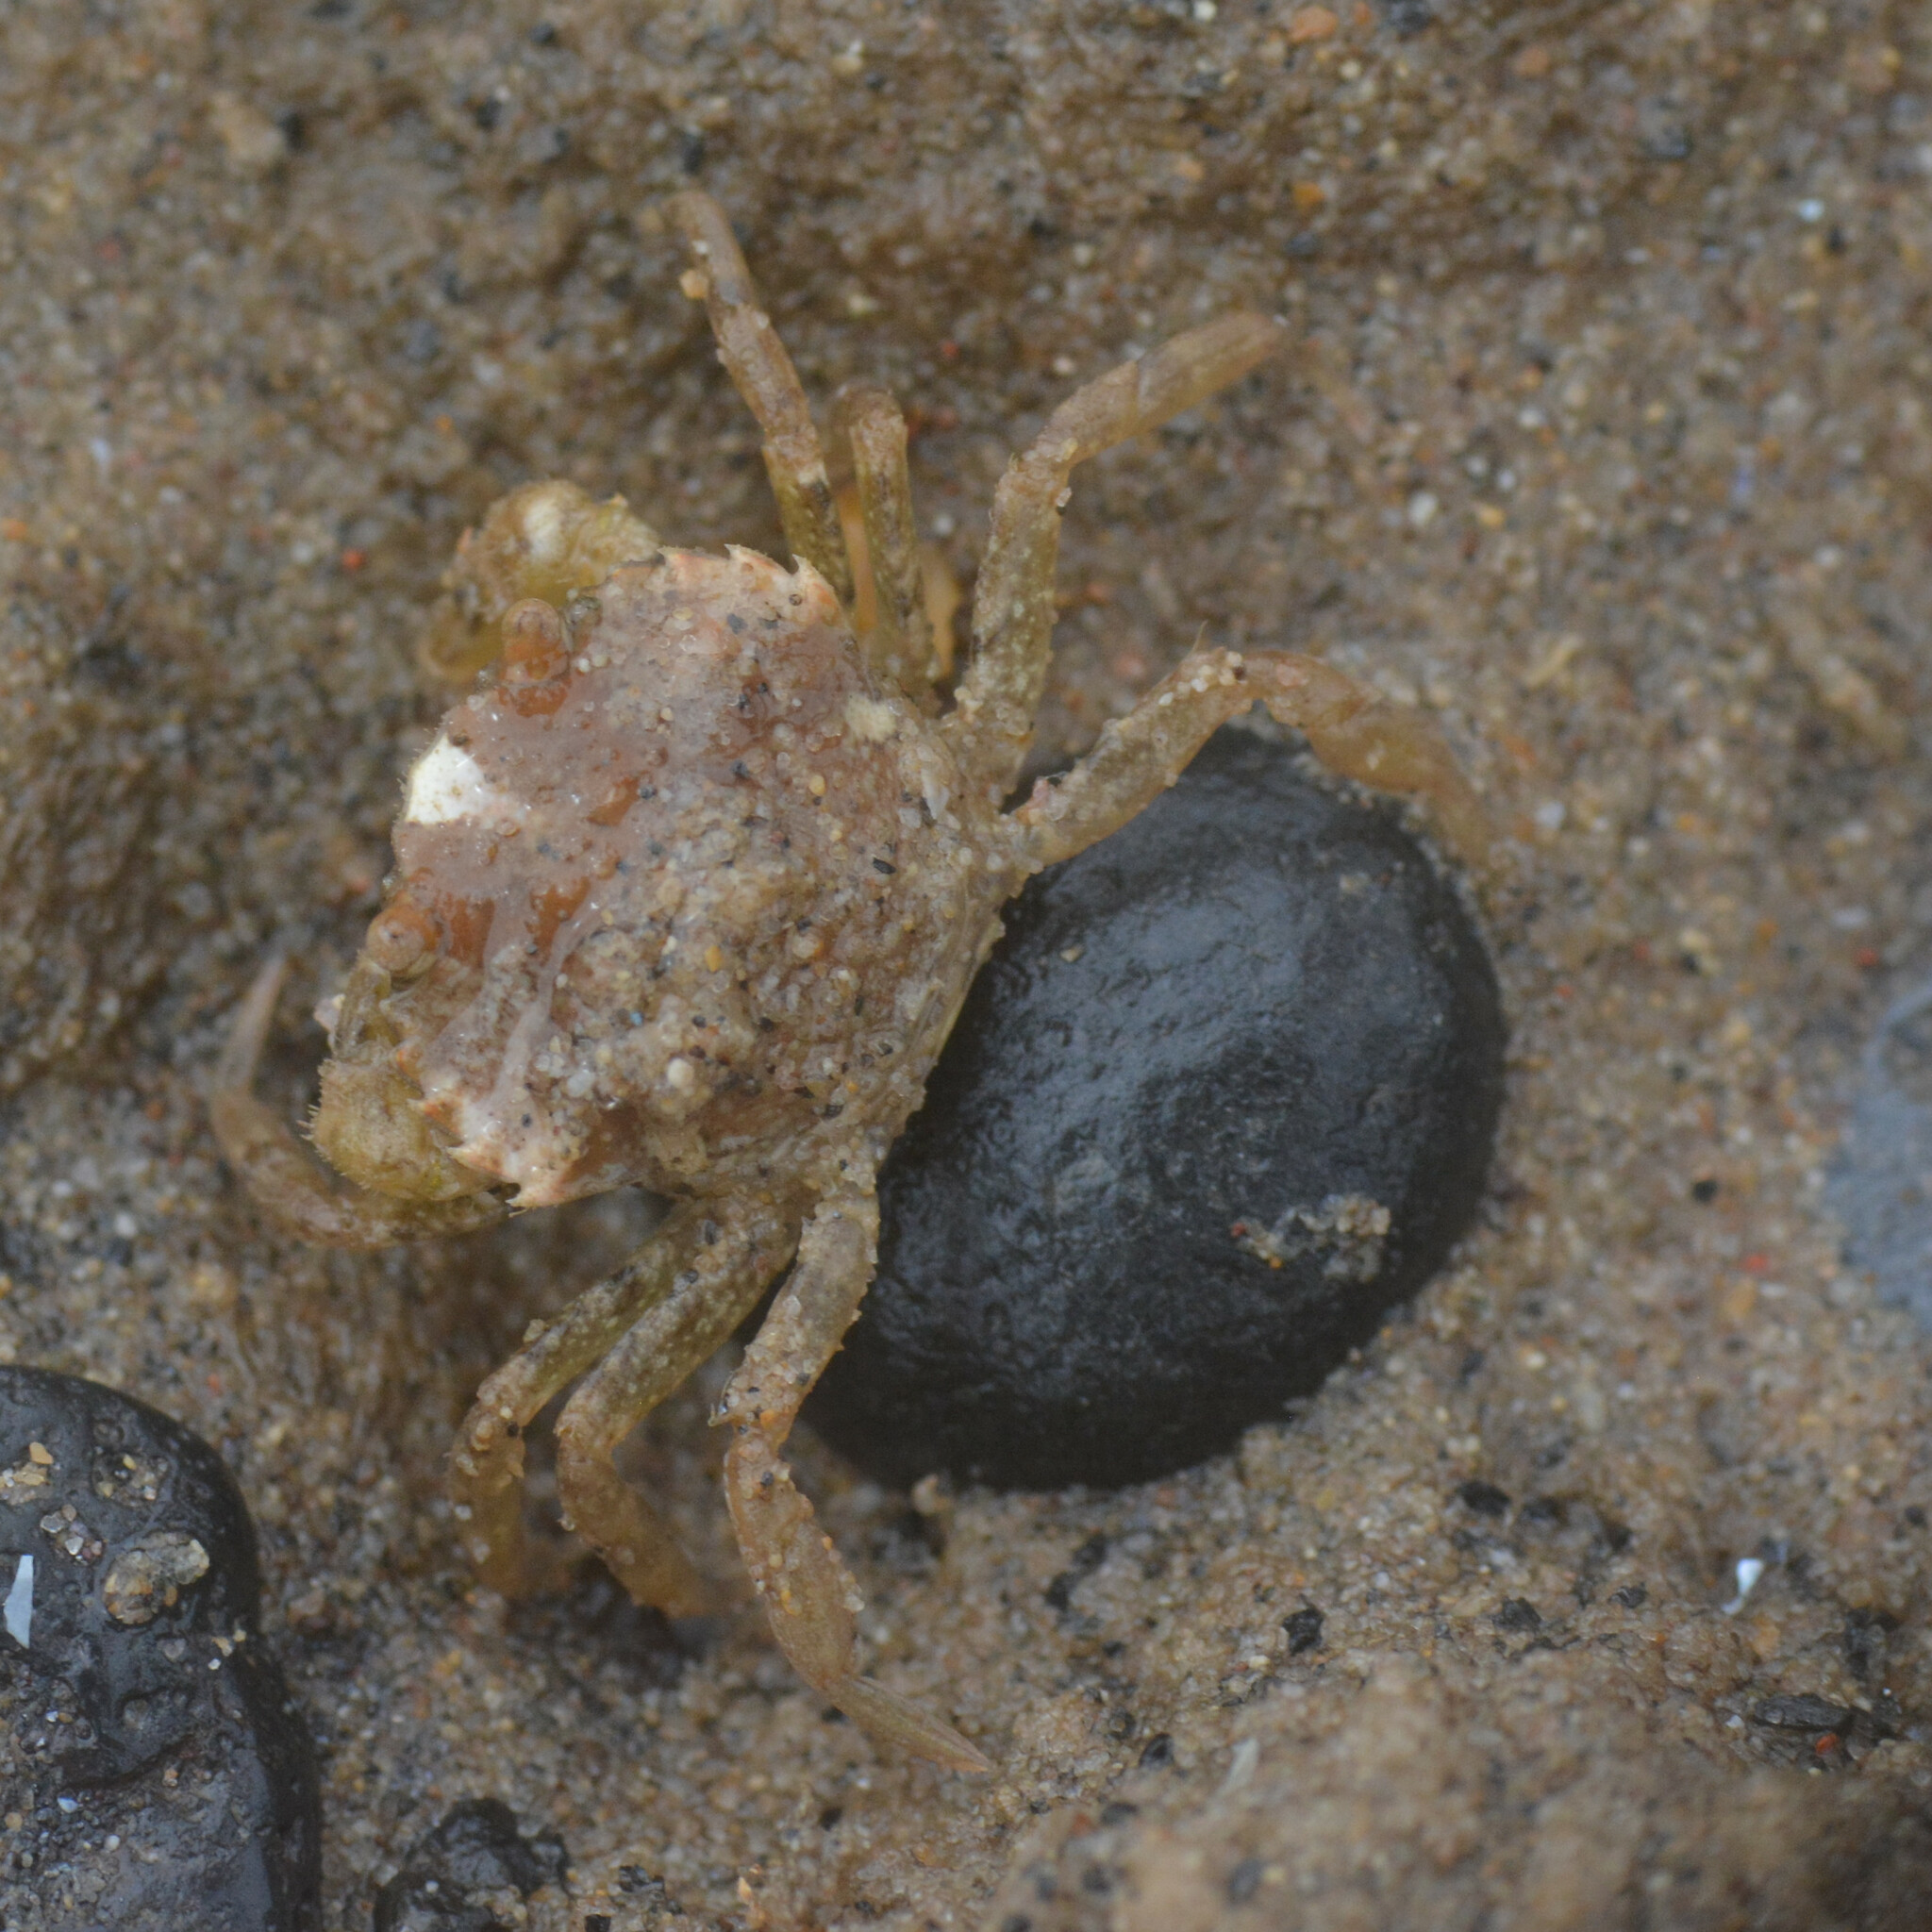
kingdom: Animalia
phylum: Arthropoda
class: Malacostraca
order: Decapoda
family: Carcinidae
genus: Carcinus
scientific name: Carcinus maenas
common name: European green crab
